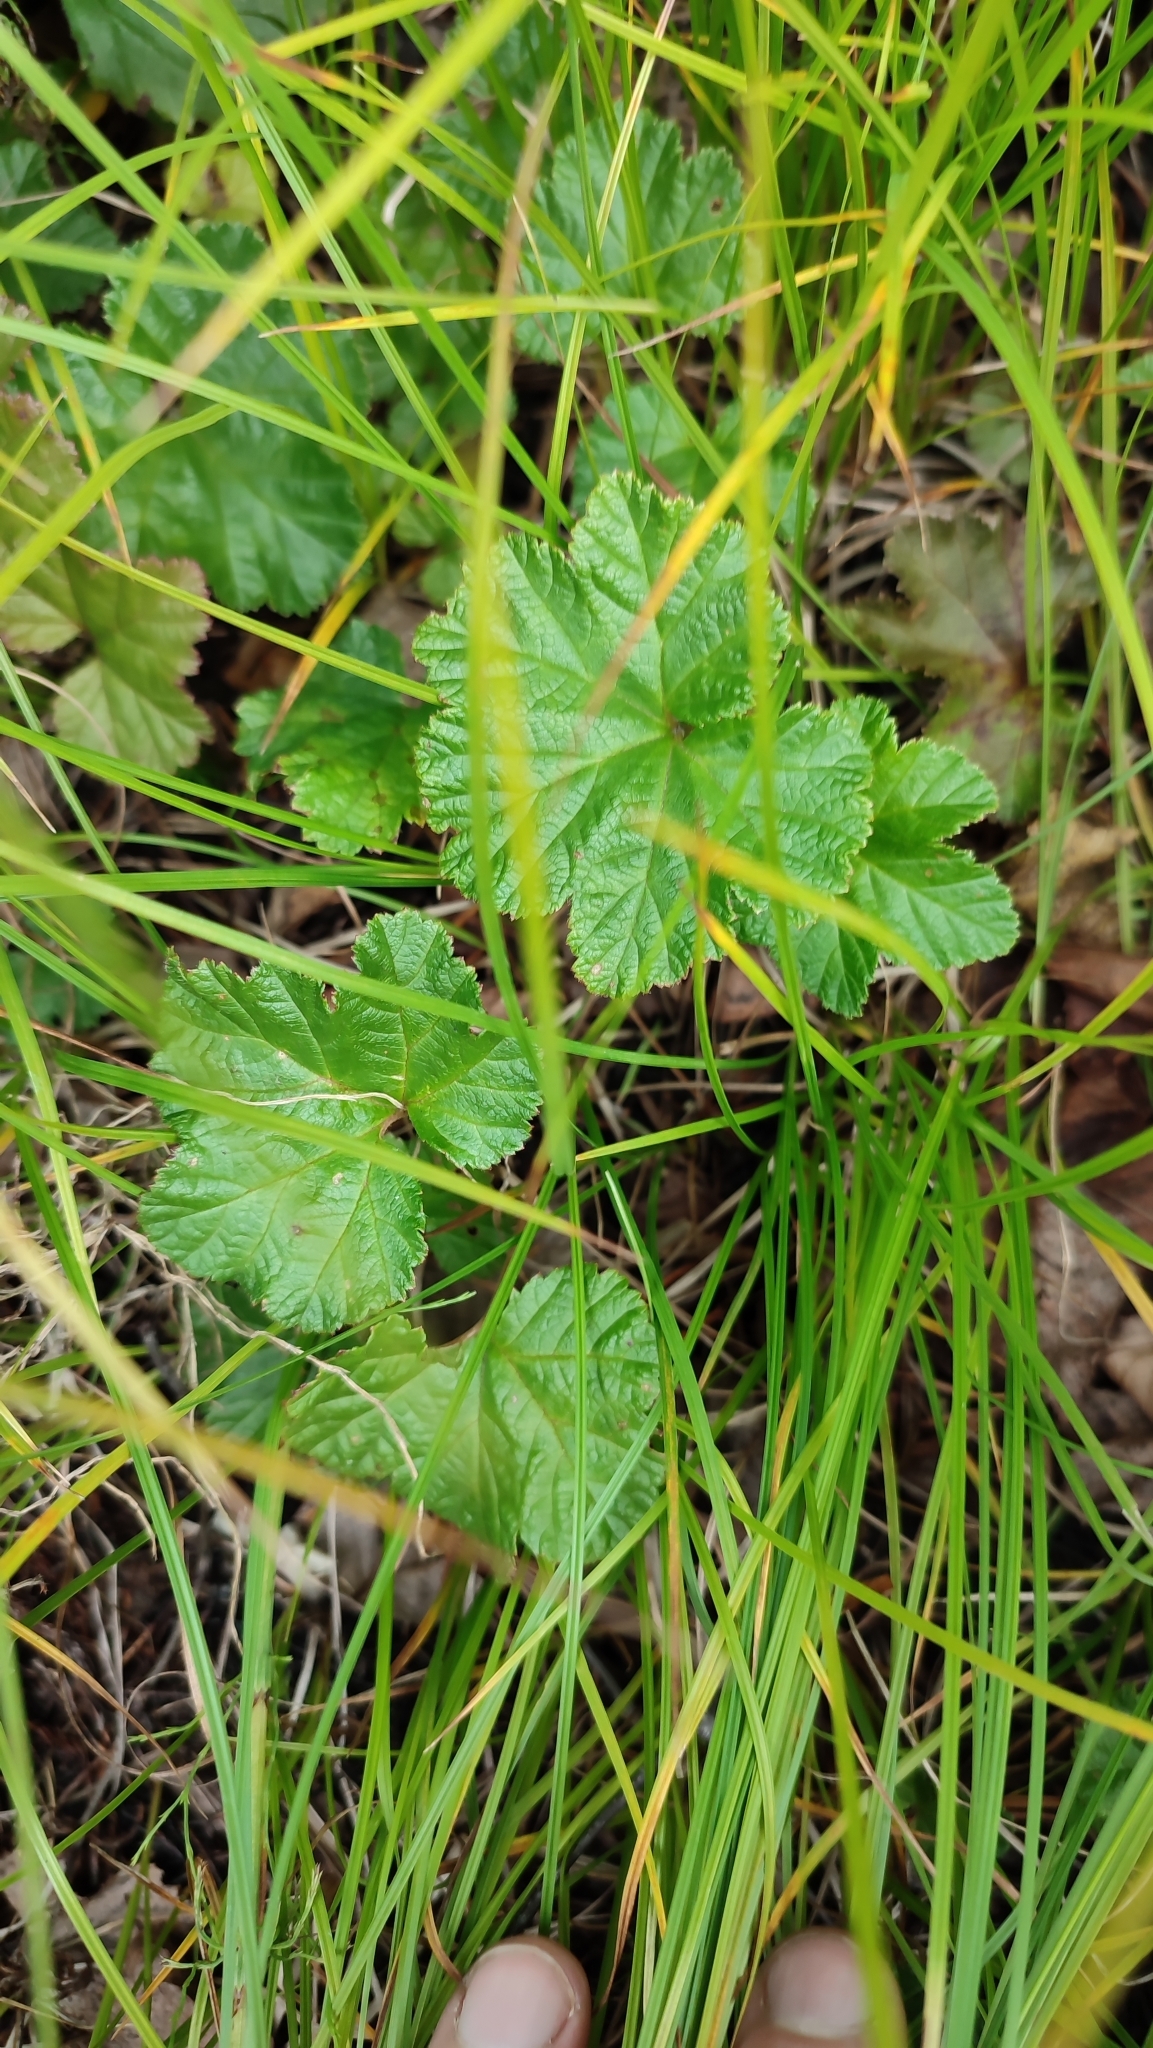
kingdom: Plantae
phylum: Tracheophyta
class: Magnoliopsida
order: Rosales
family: Rosaceae
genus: Rubus
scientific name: Rubus chamaemorus
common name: Cloudberry
